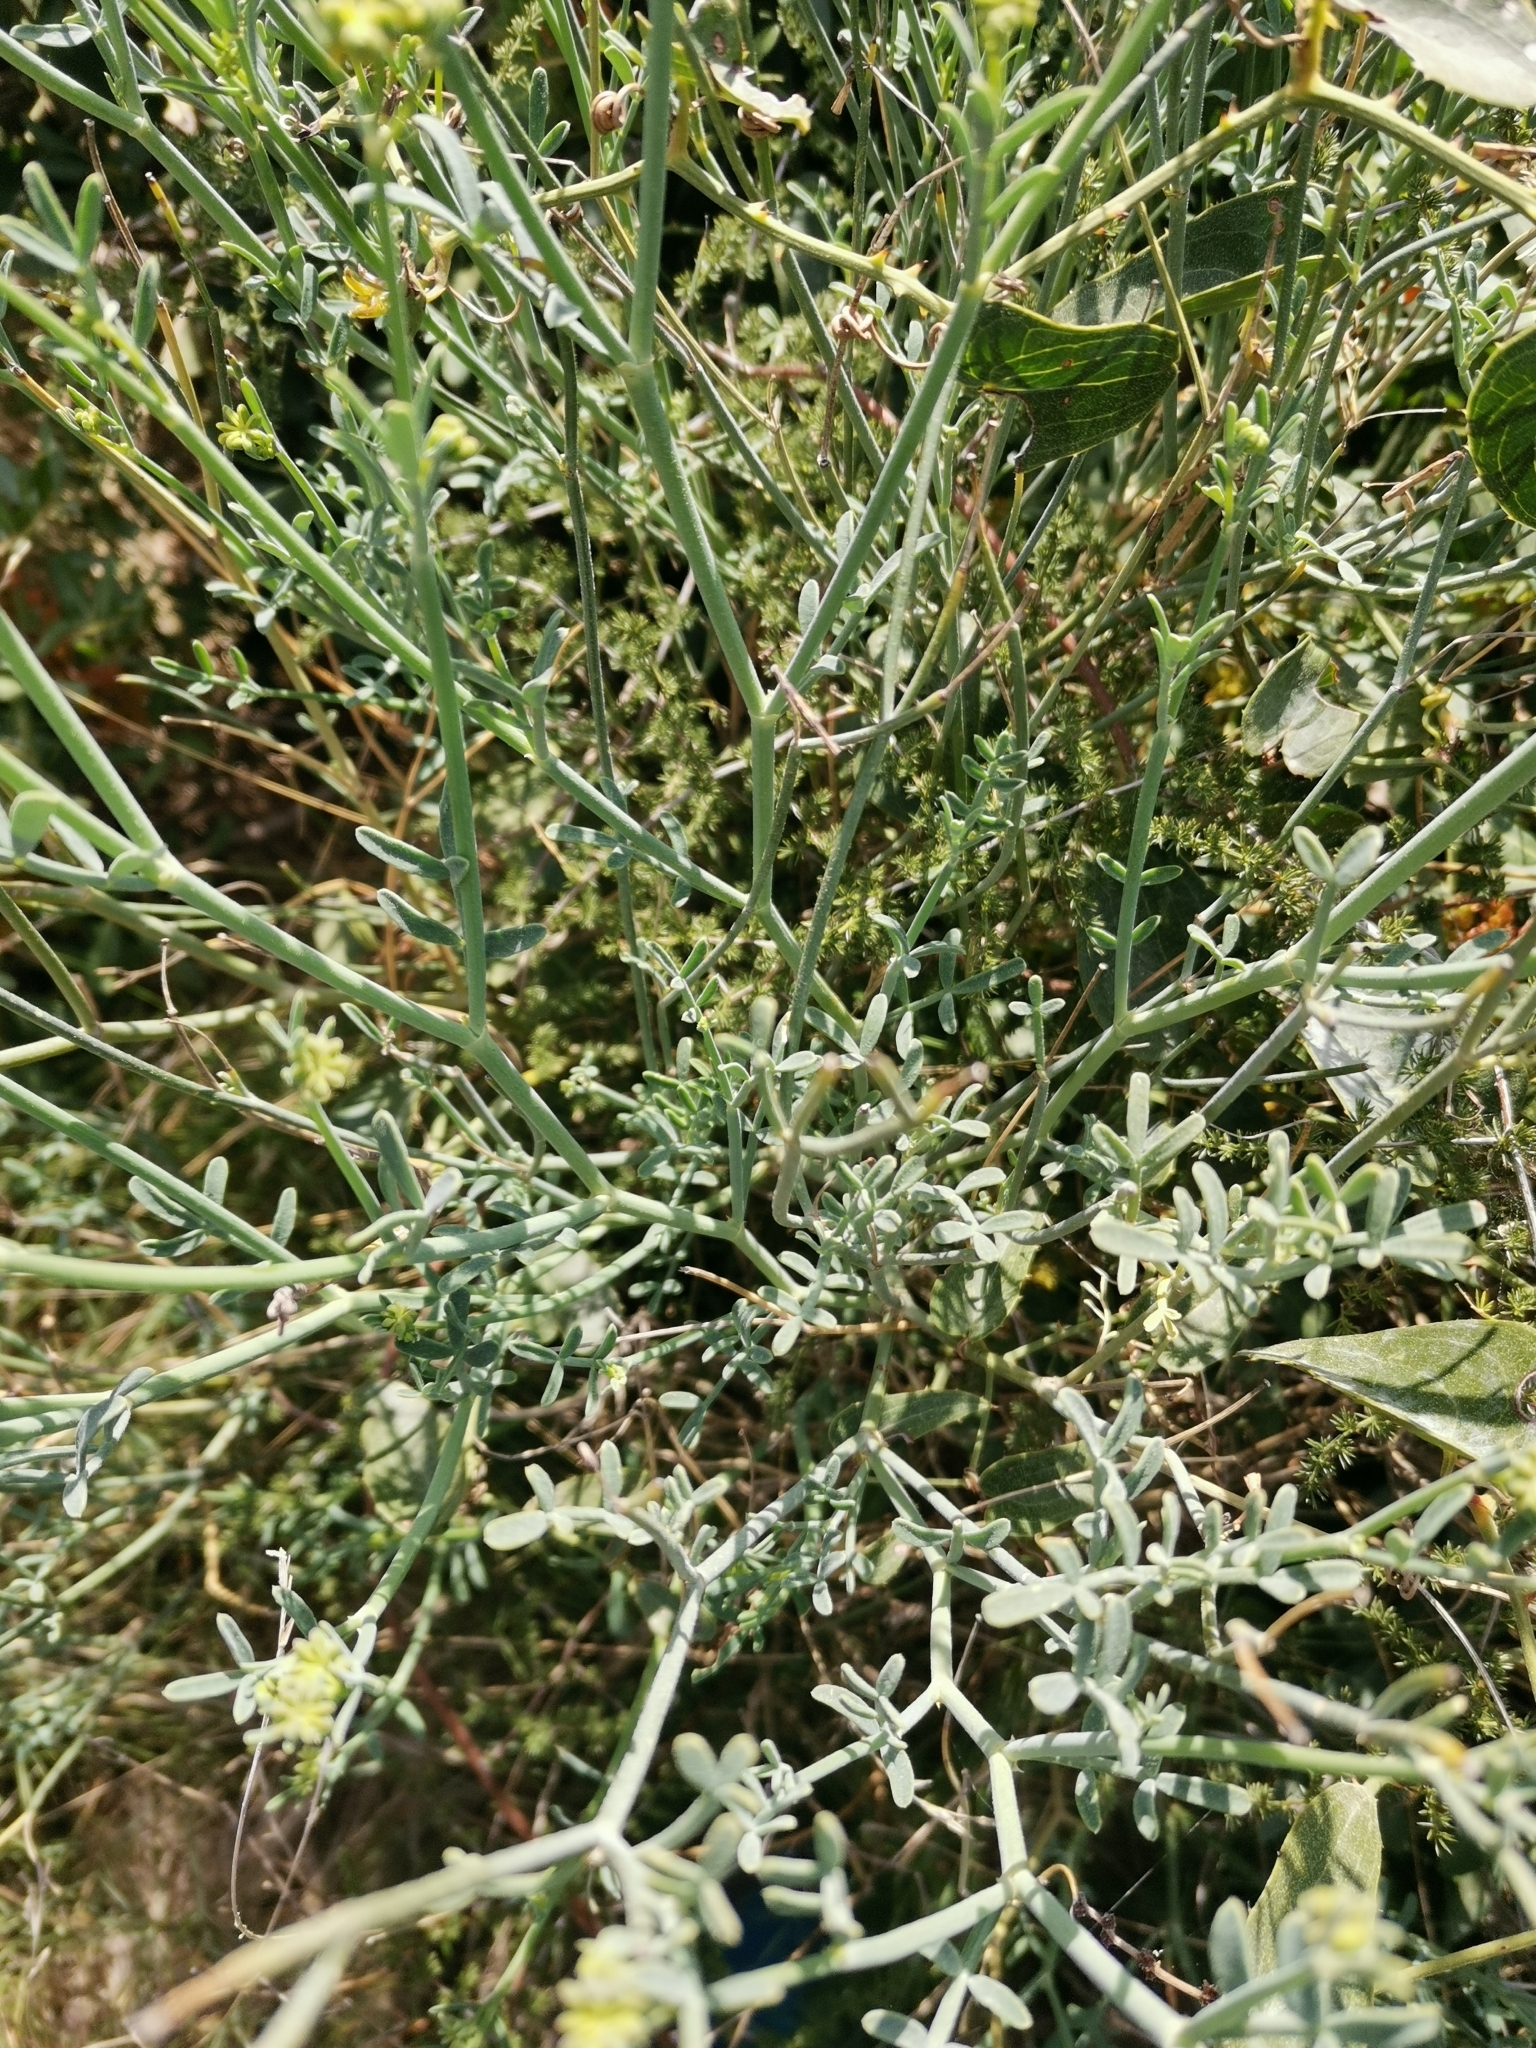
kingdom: Plantae
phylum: Tracheophyta
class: Magnoliopsida
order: Fabales
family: Fabaceae
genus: Coronilla
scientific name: Coronilla juncea
